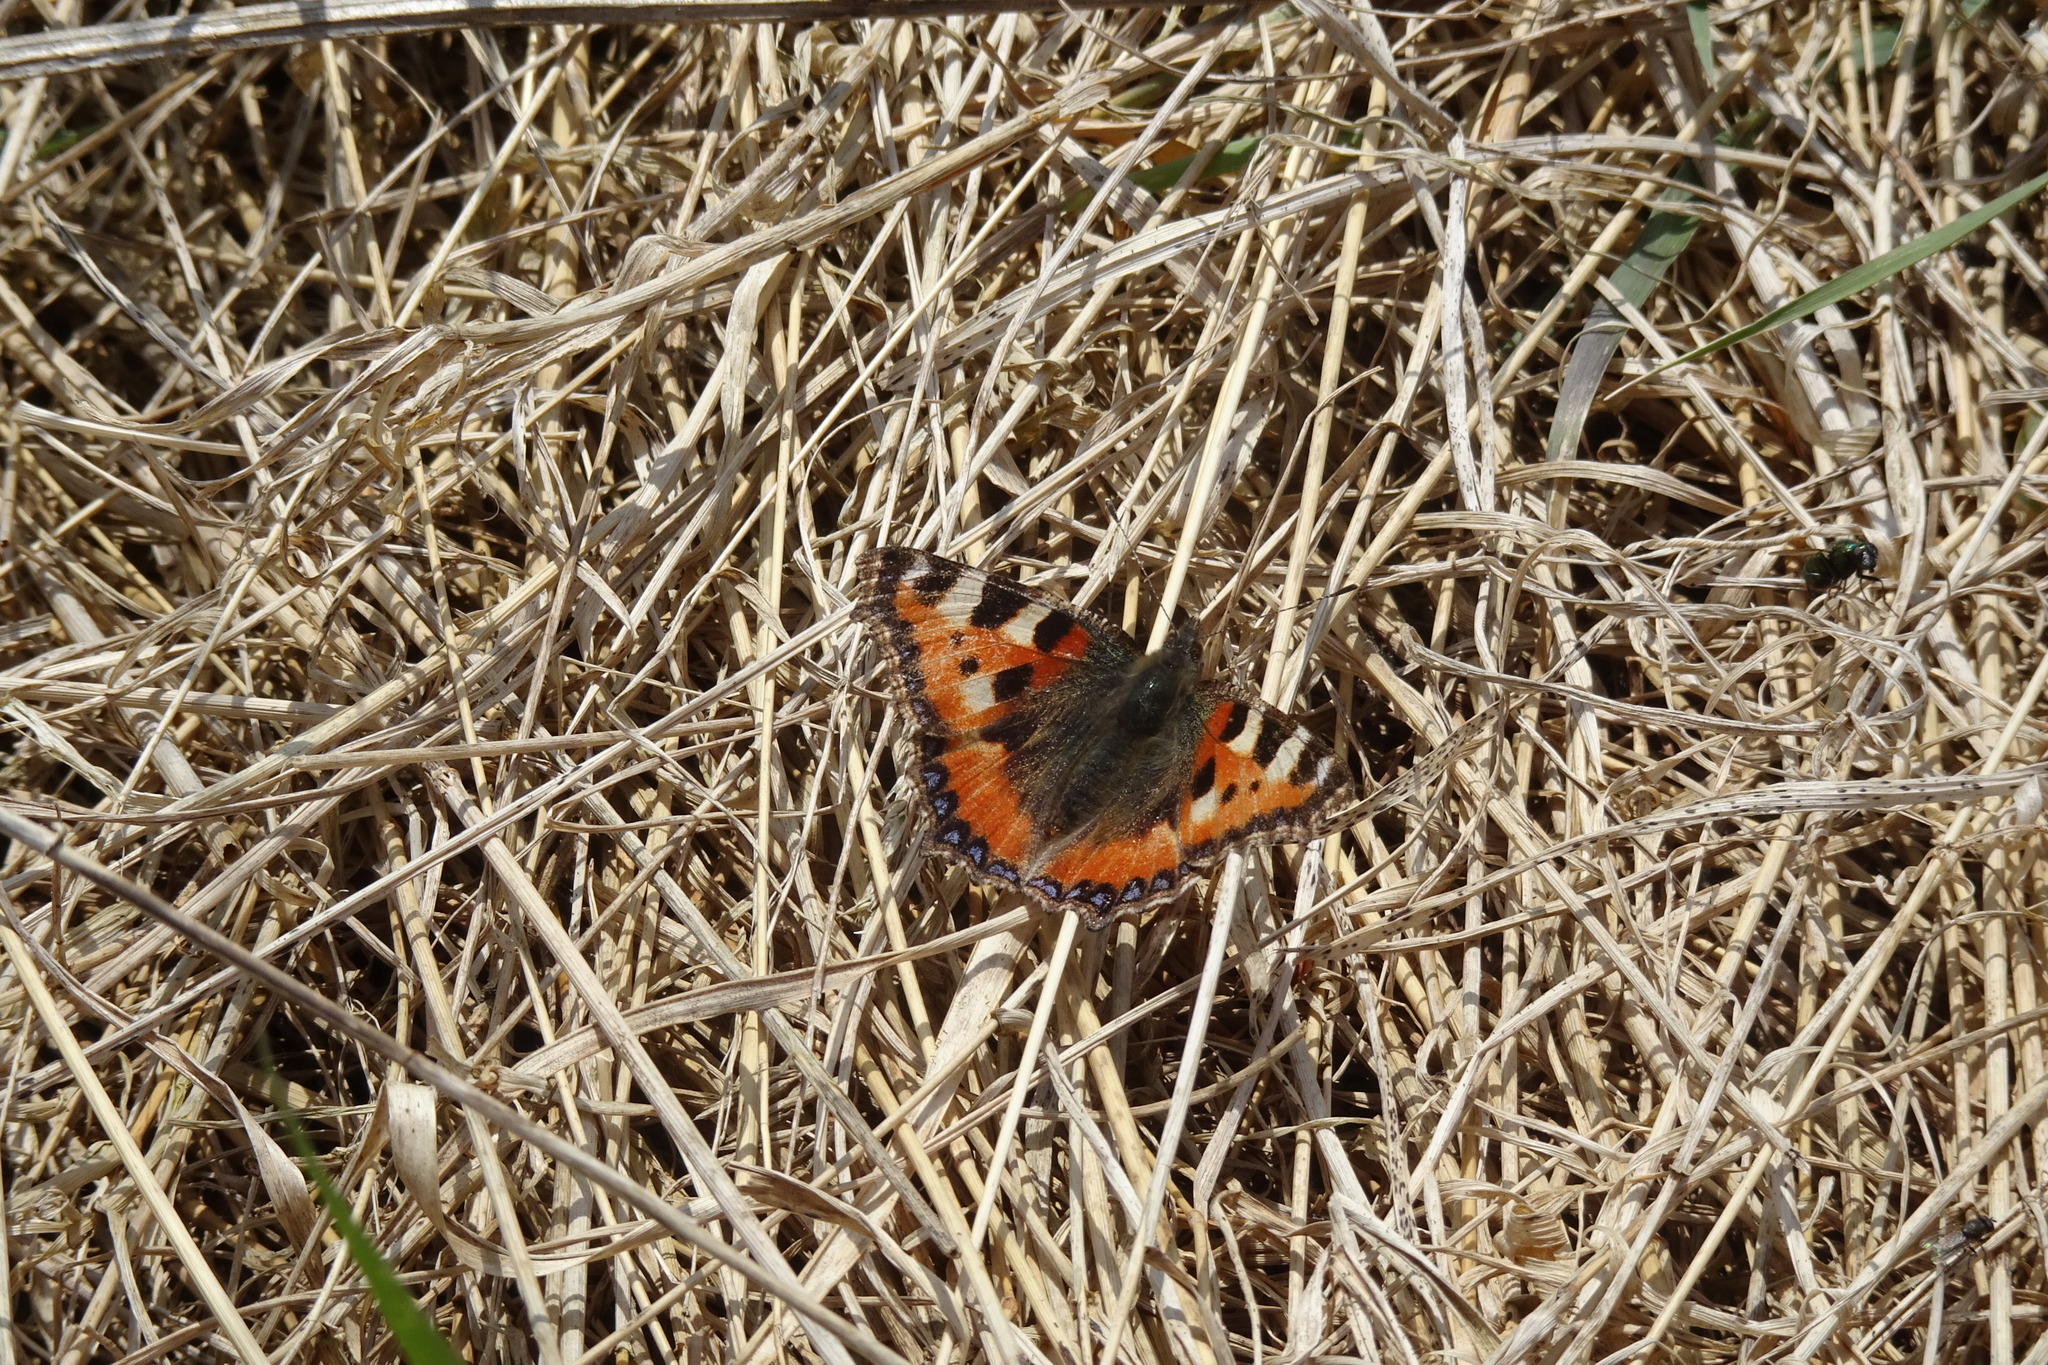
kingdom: Animalia
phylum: Arthropoda
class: Insecta
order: Lepidoptera
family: Nymphalidae
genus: Aglais
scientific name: Aglais urticae
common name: Small tortoiseshell
